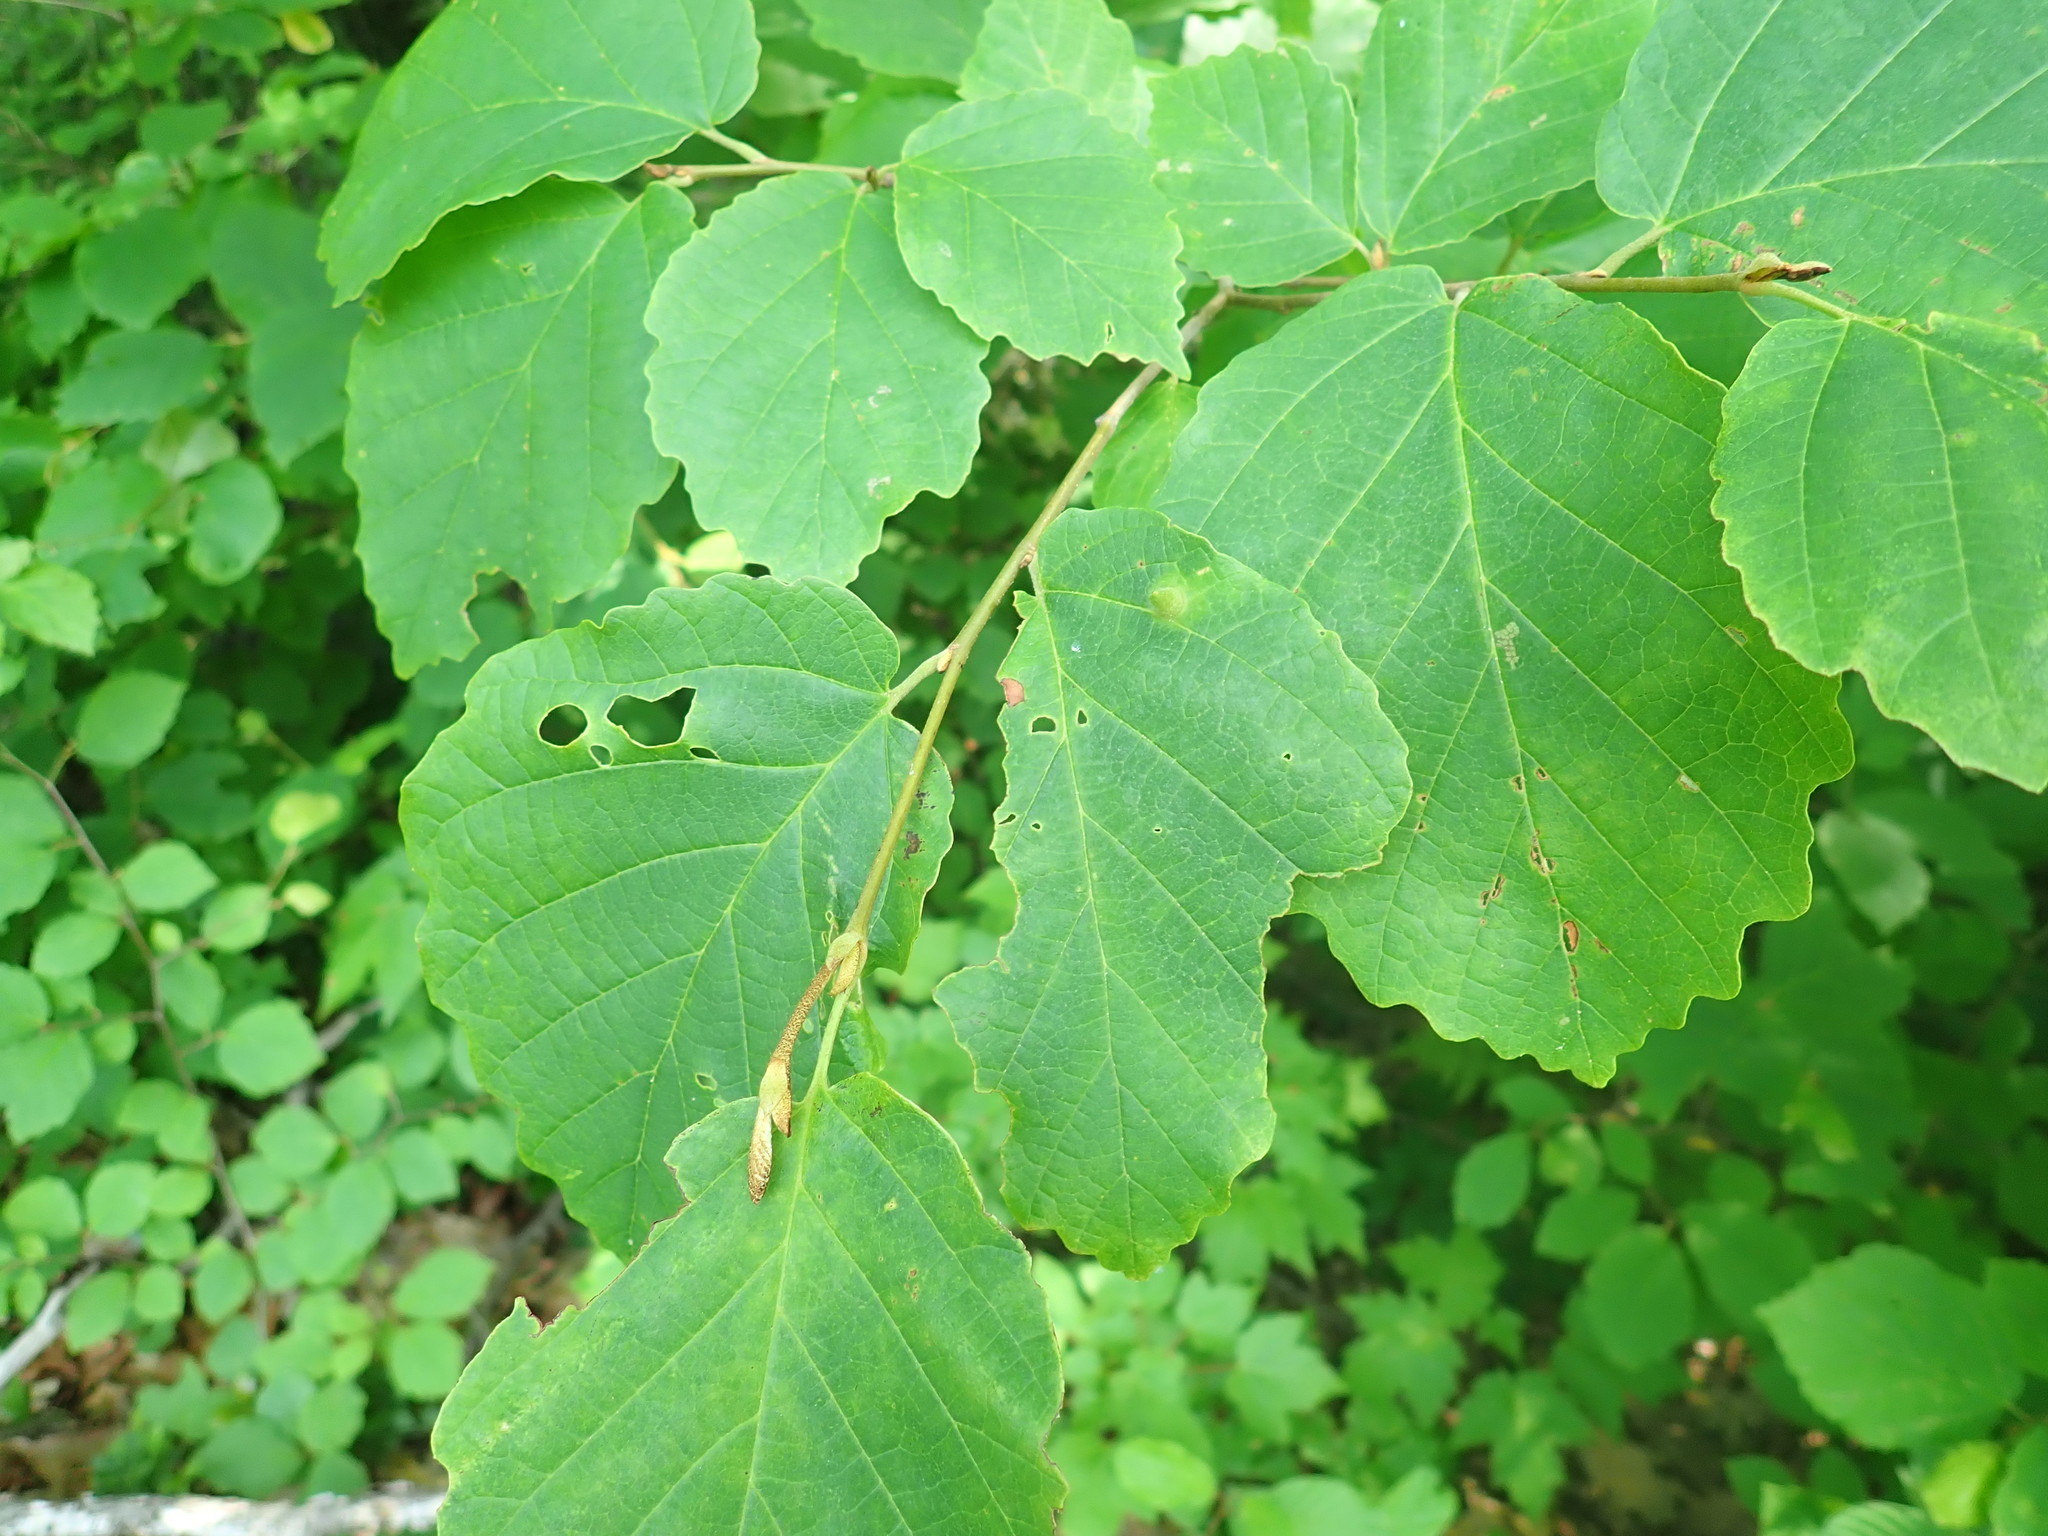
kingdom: Plantae
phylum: Tracheophyta
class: Magnoliopsida
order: Saxifragales
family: Hamamelidaceae
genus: Hamamelis
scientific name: Hamamelis virginiana
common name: Witch-hazel
